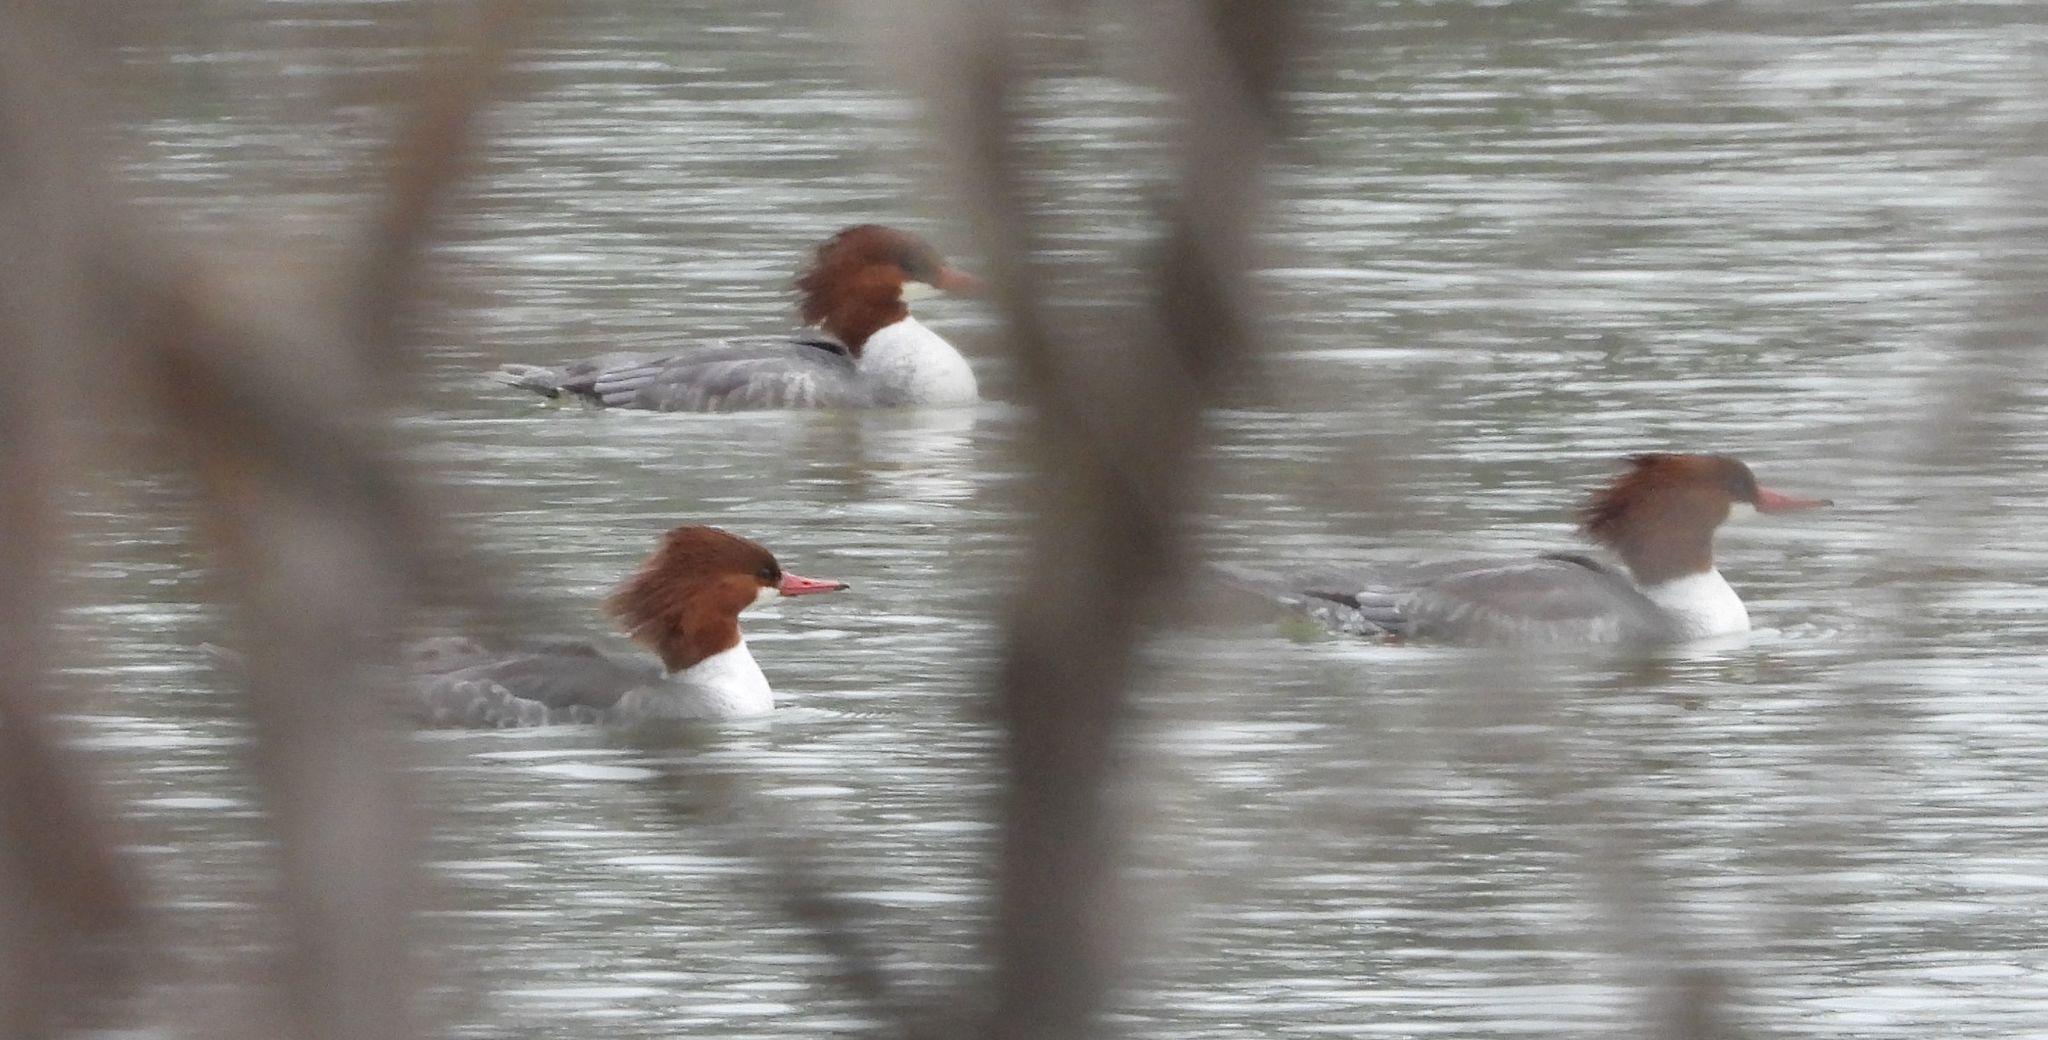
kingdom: Animalia
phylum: Chordata
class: Aves
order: Anseriformes
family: Anatidae
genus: Mergus
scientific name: Mergus merganser
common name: Common merganser
